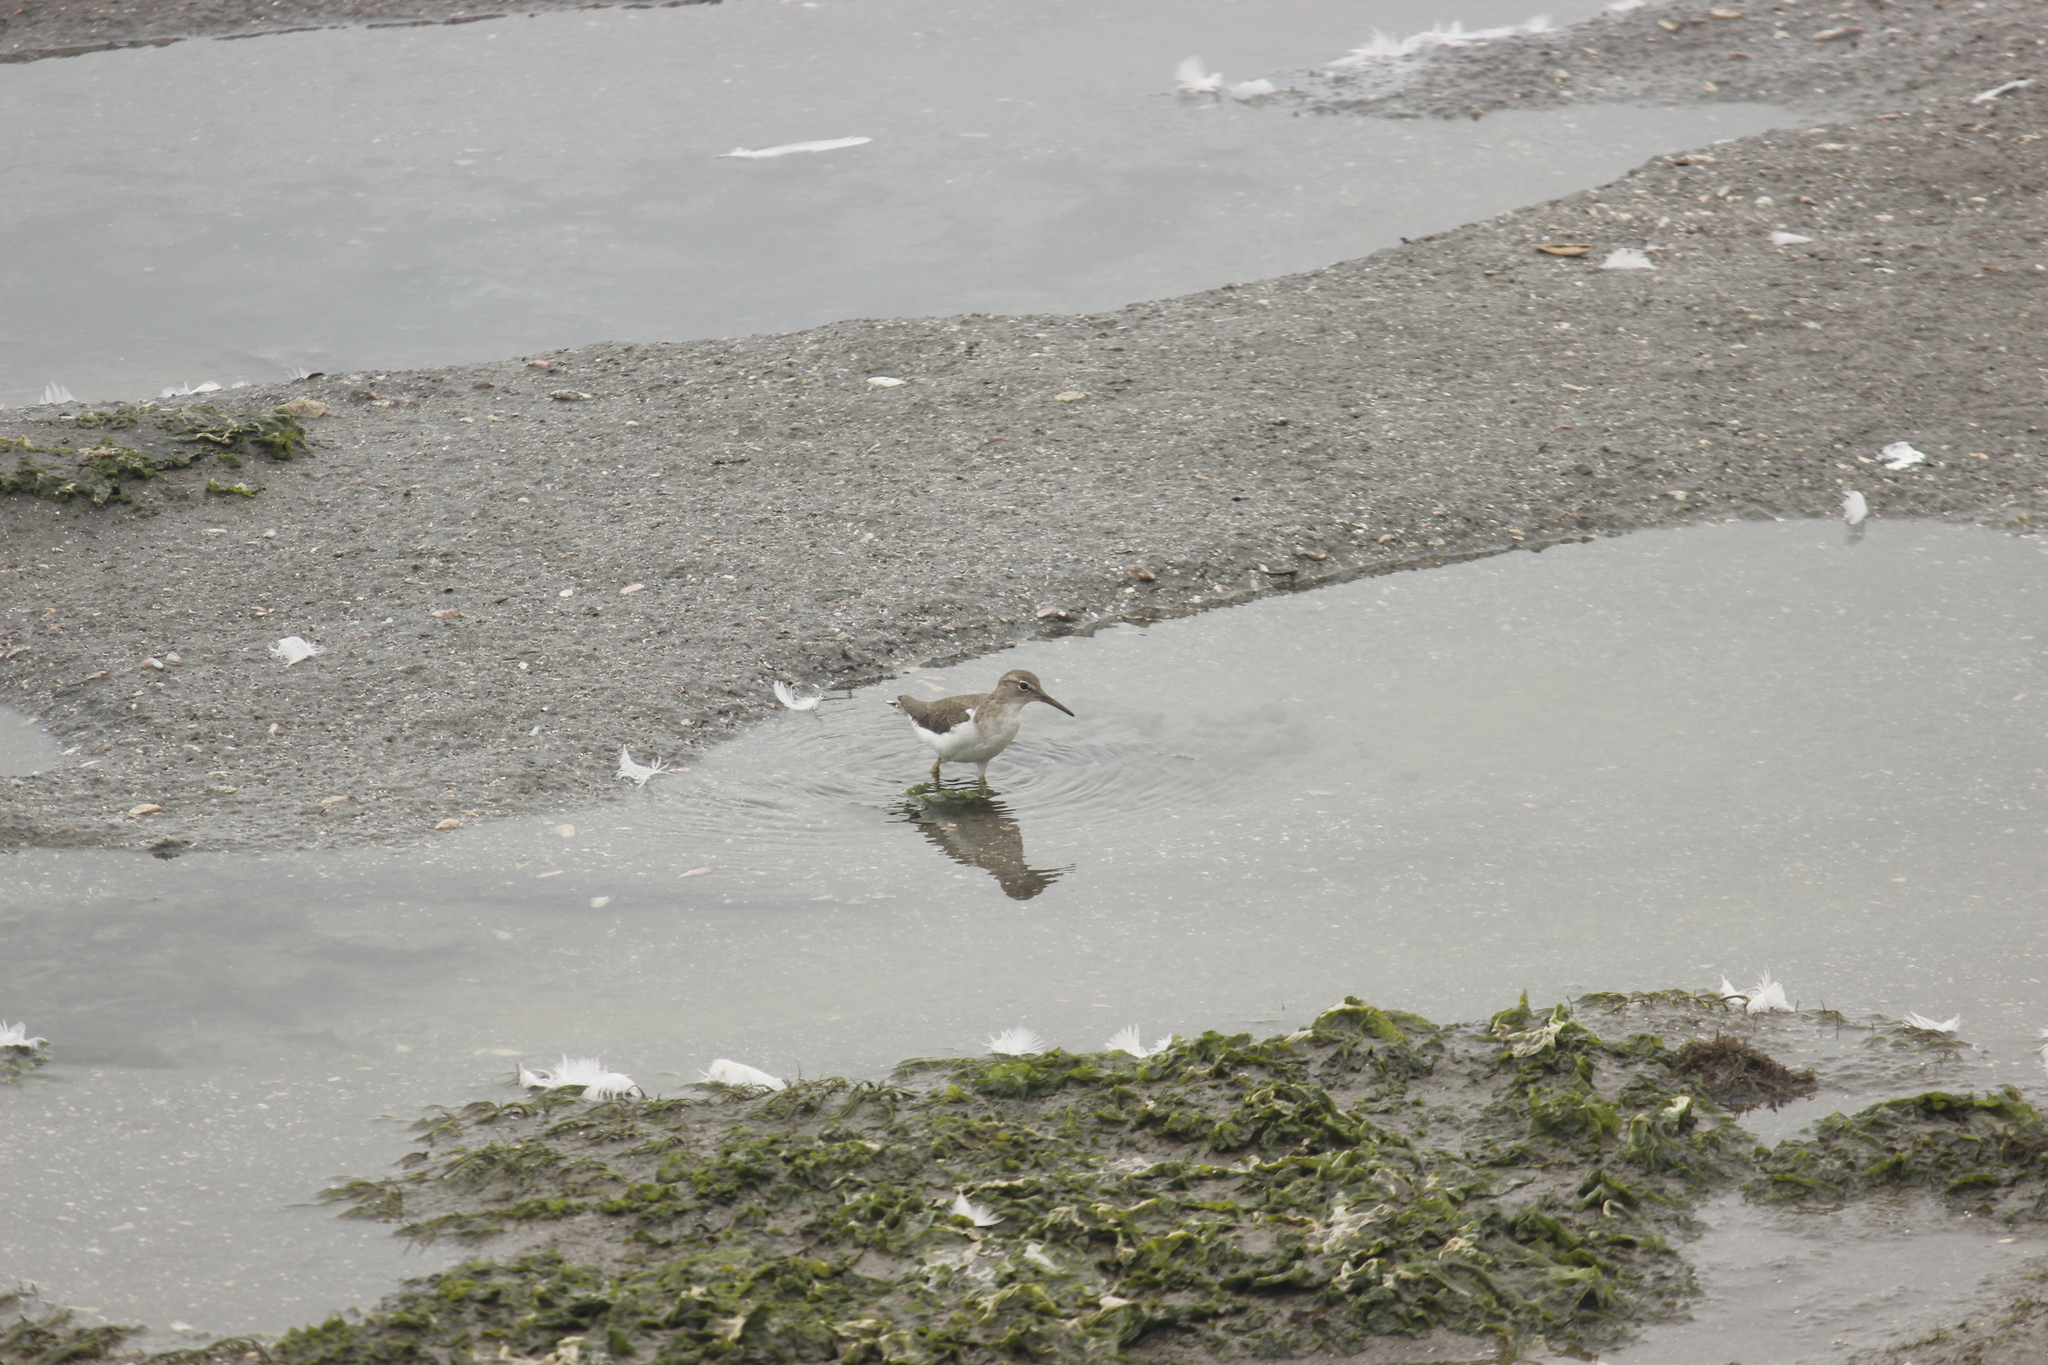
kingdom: Animalia
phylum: Chordata
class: Aves
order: Charadriiformes
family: Scolopacidae
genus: Actitis
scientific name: Actitis macularius
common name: Spotted sandpiper
